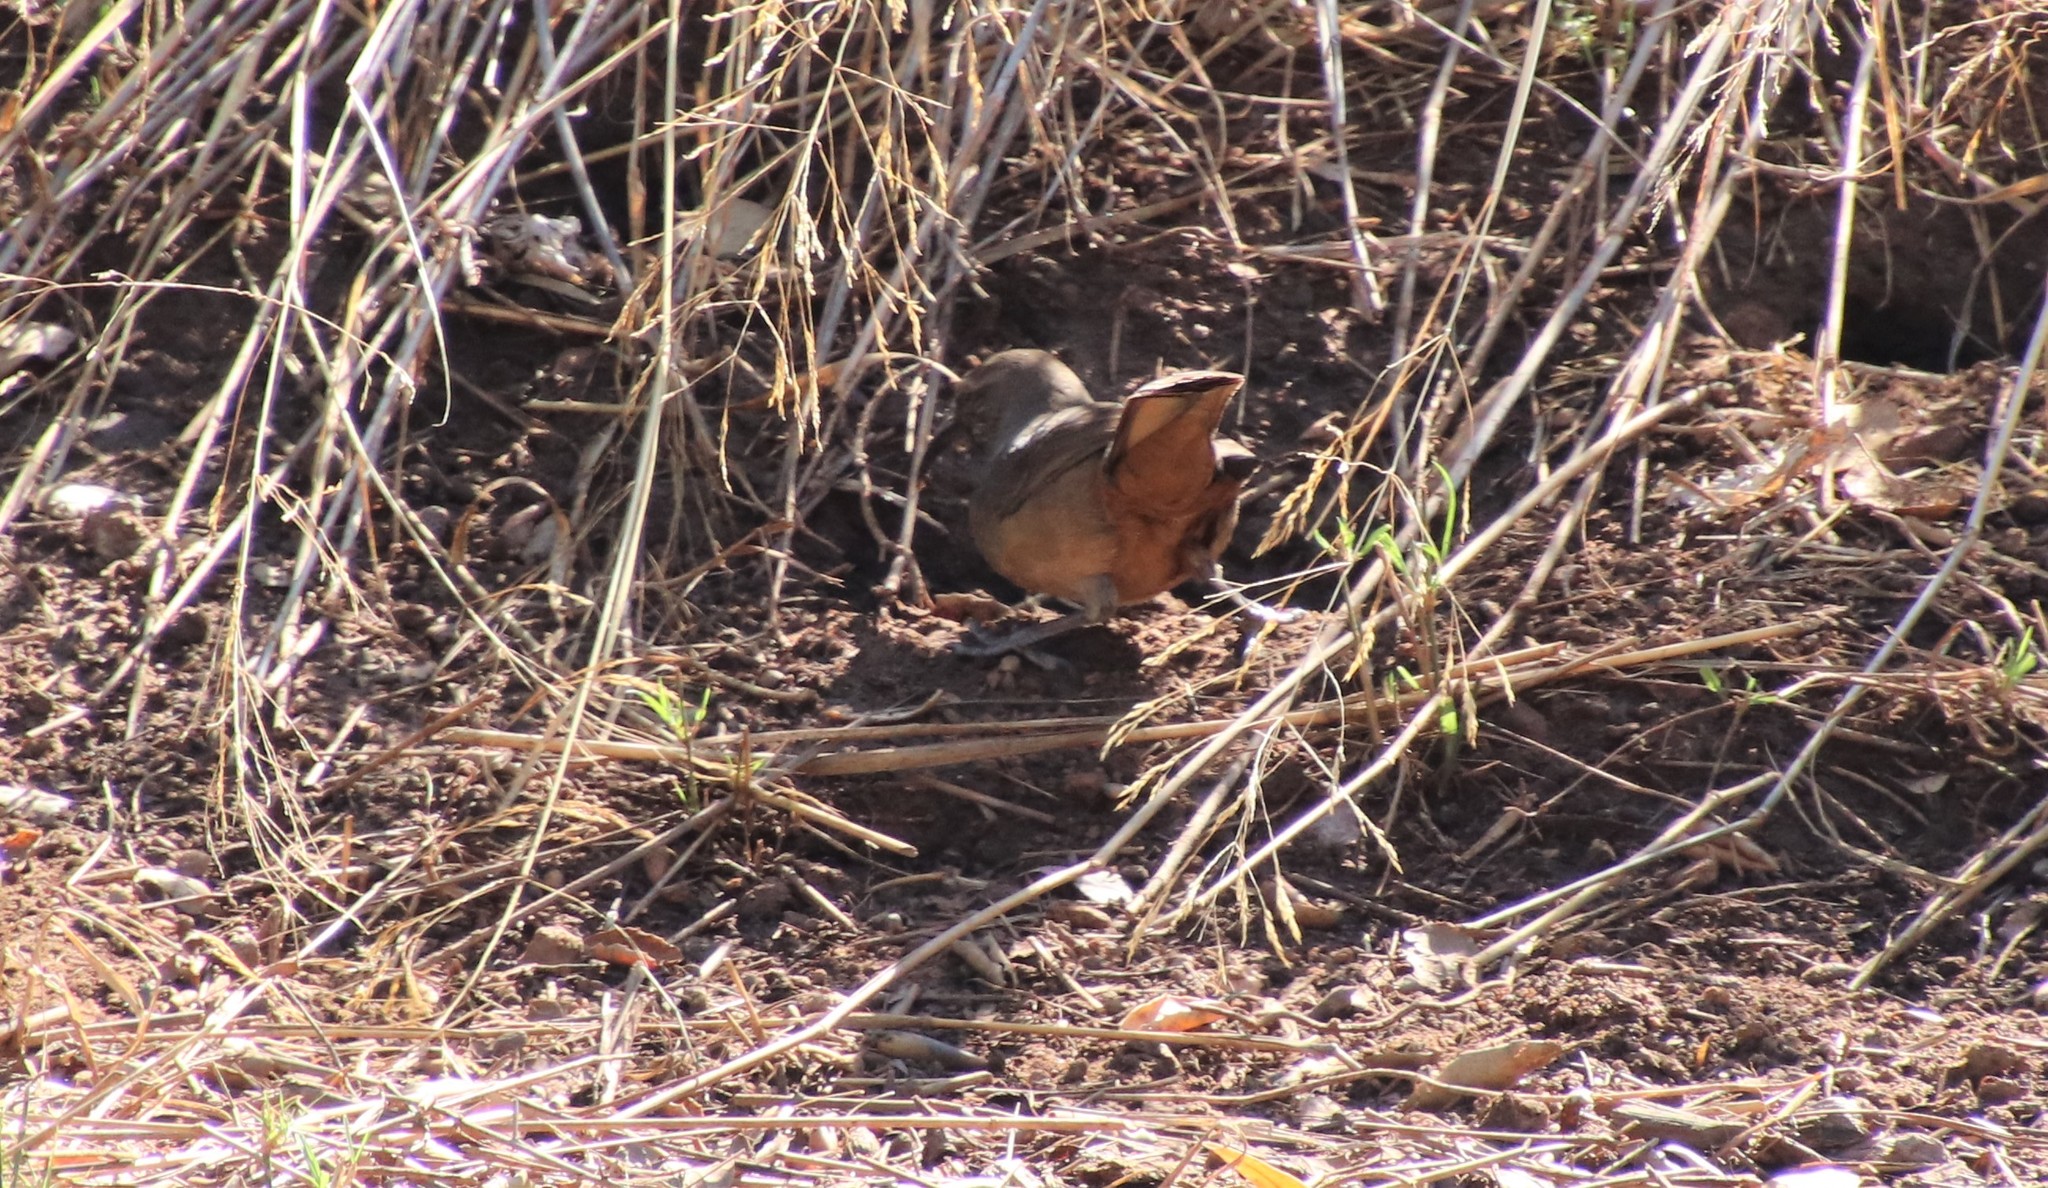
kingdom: Animalia
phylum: Chordata
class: Aves
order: Passeriformes
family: Mimidae
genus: Toxostoma
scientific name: Toxostoma redivivum
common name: California thrasher
